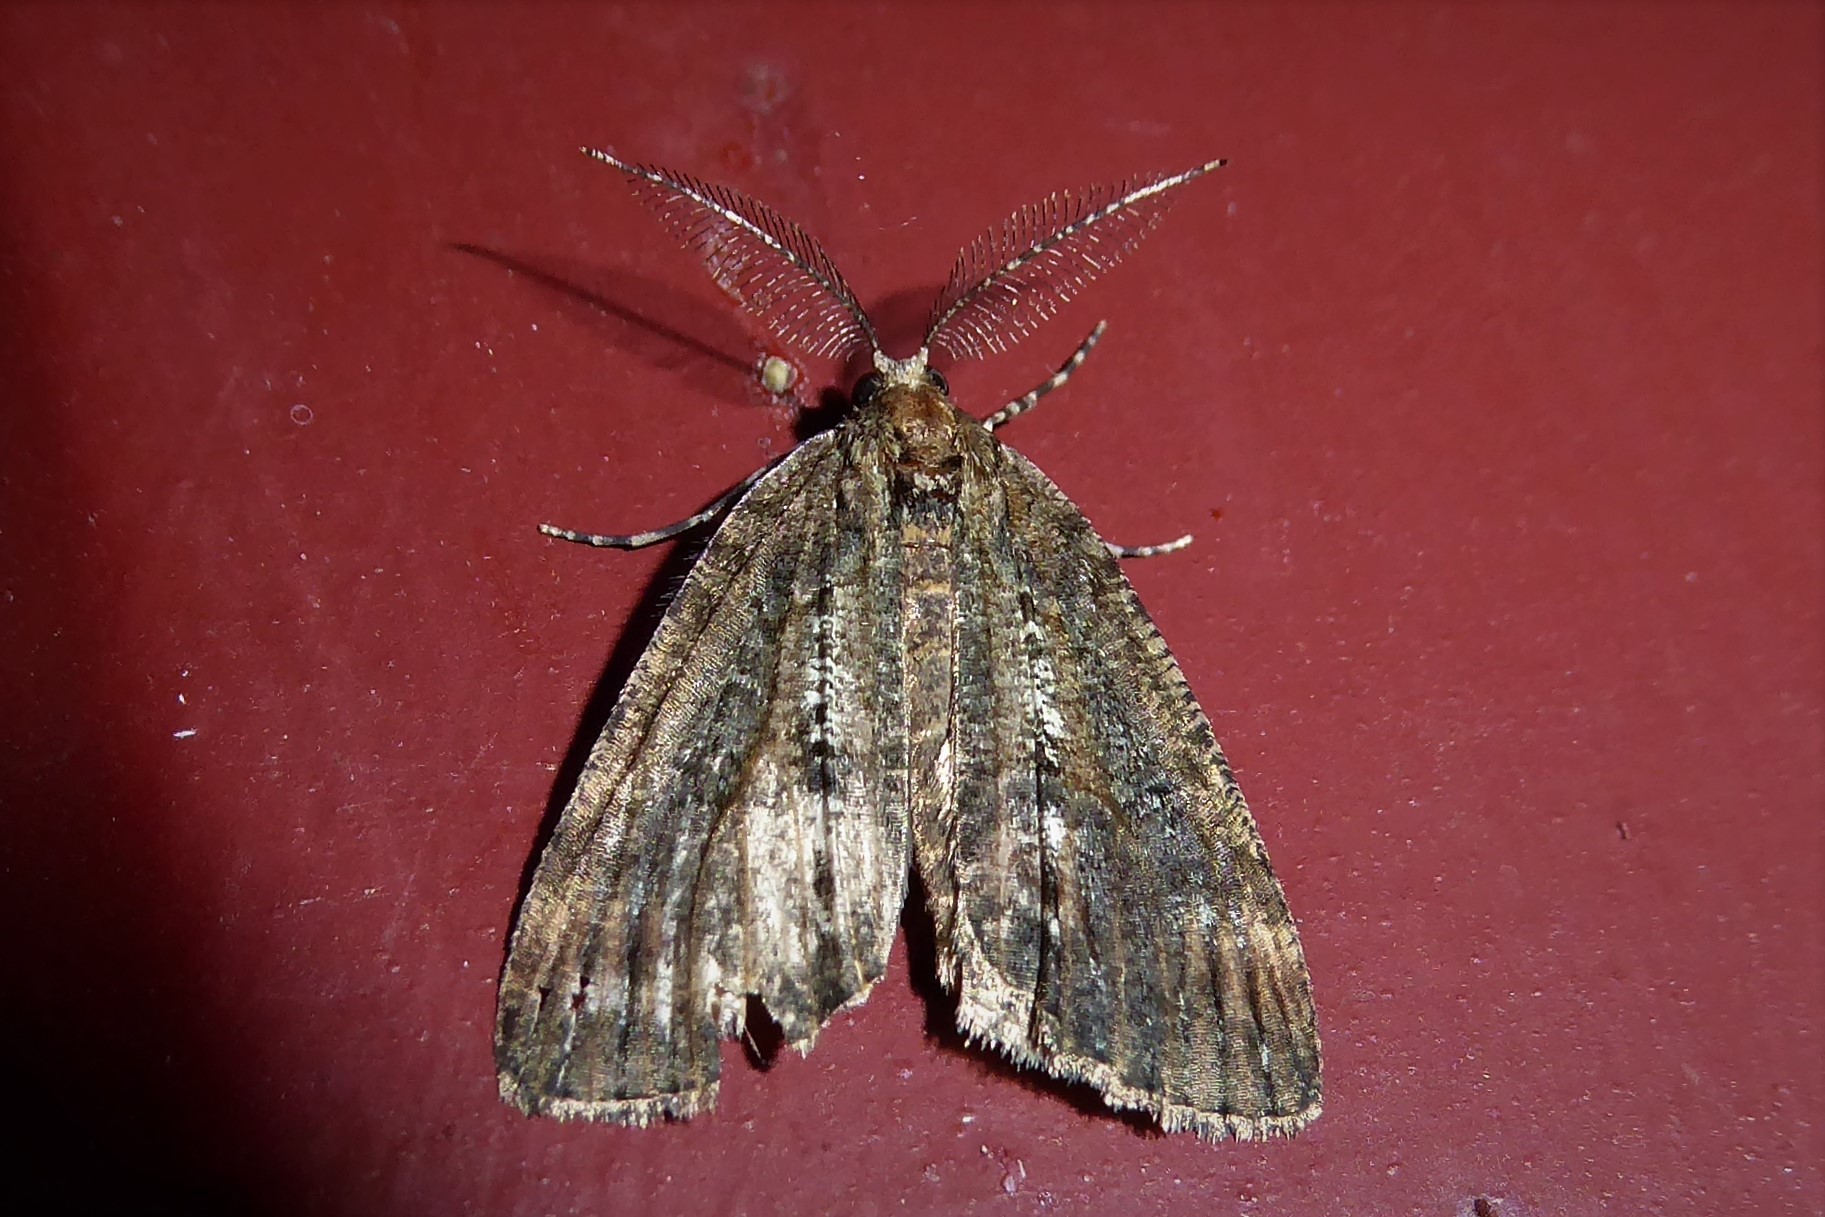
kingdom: Animalia
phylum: Arthropoda
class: Insecta
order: Lepidoptera
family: Geometridae
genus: Chalastra
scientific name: Chalastra ochrea
